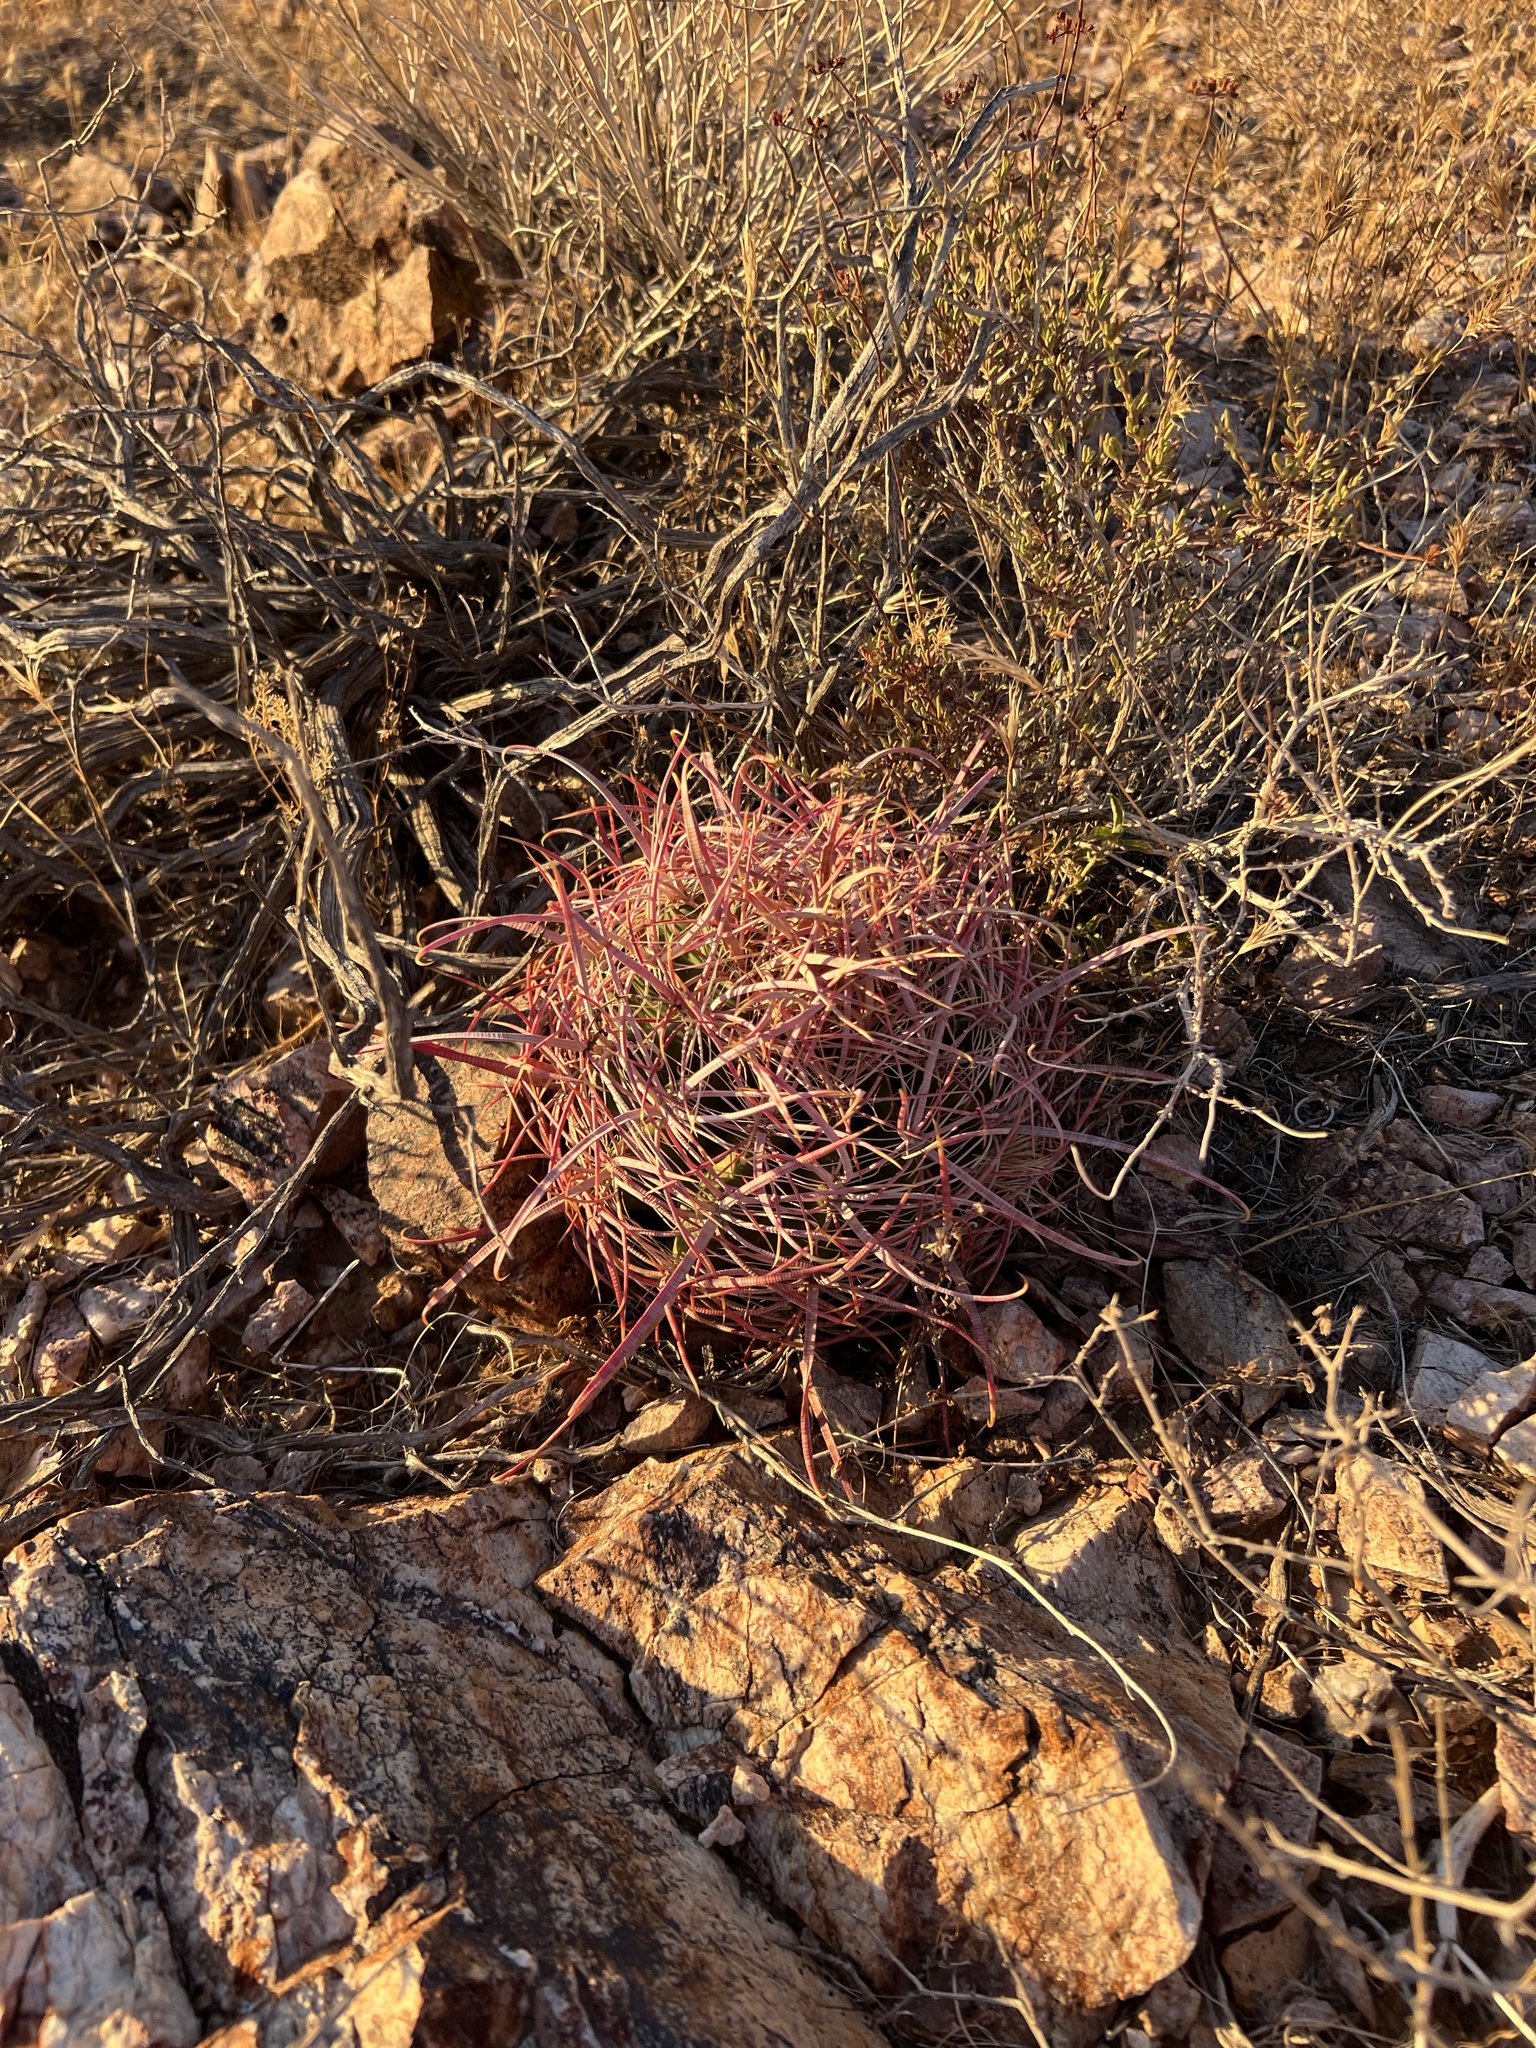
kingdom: Plantae
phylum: Tracheophyta
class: Magnoliopsida
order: Caryophyllales
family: Cactaceae
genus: Ferocactus
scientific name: Ferocactus cylindraceus
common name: California barrel cactus
